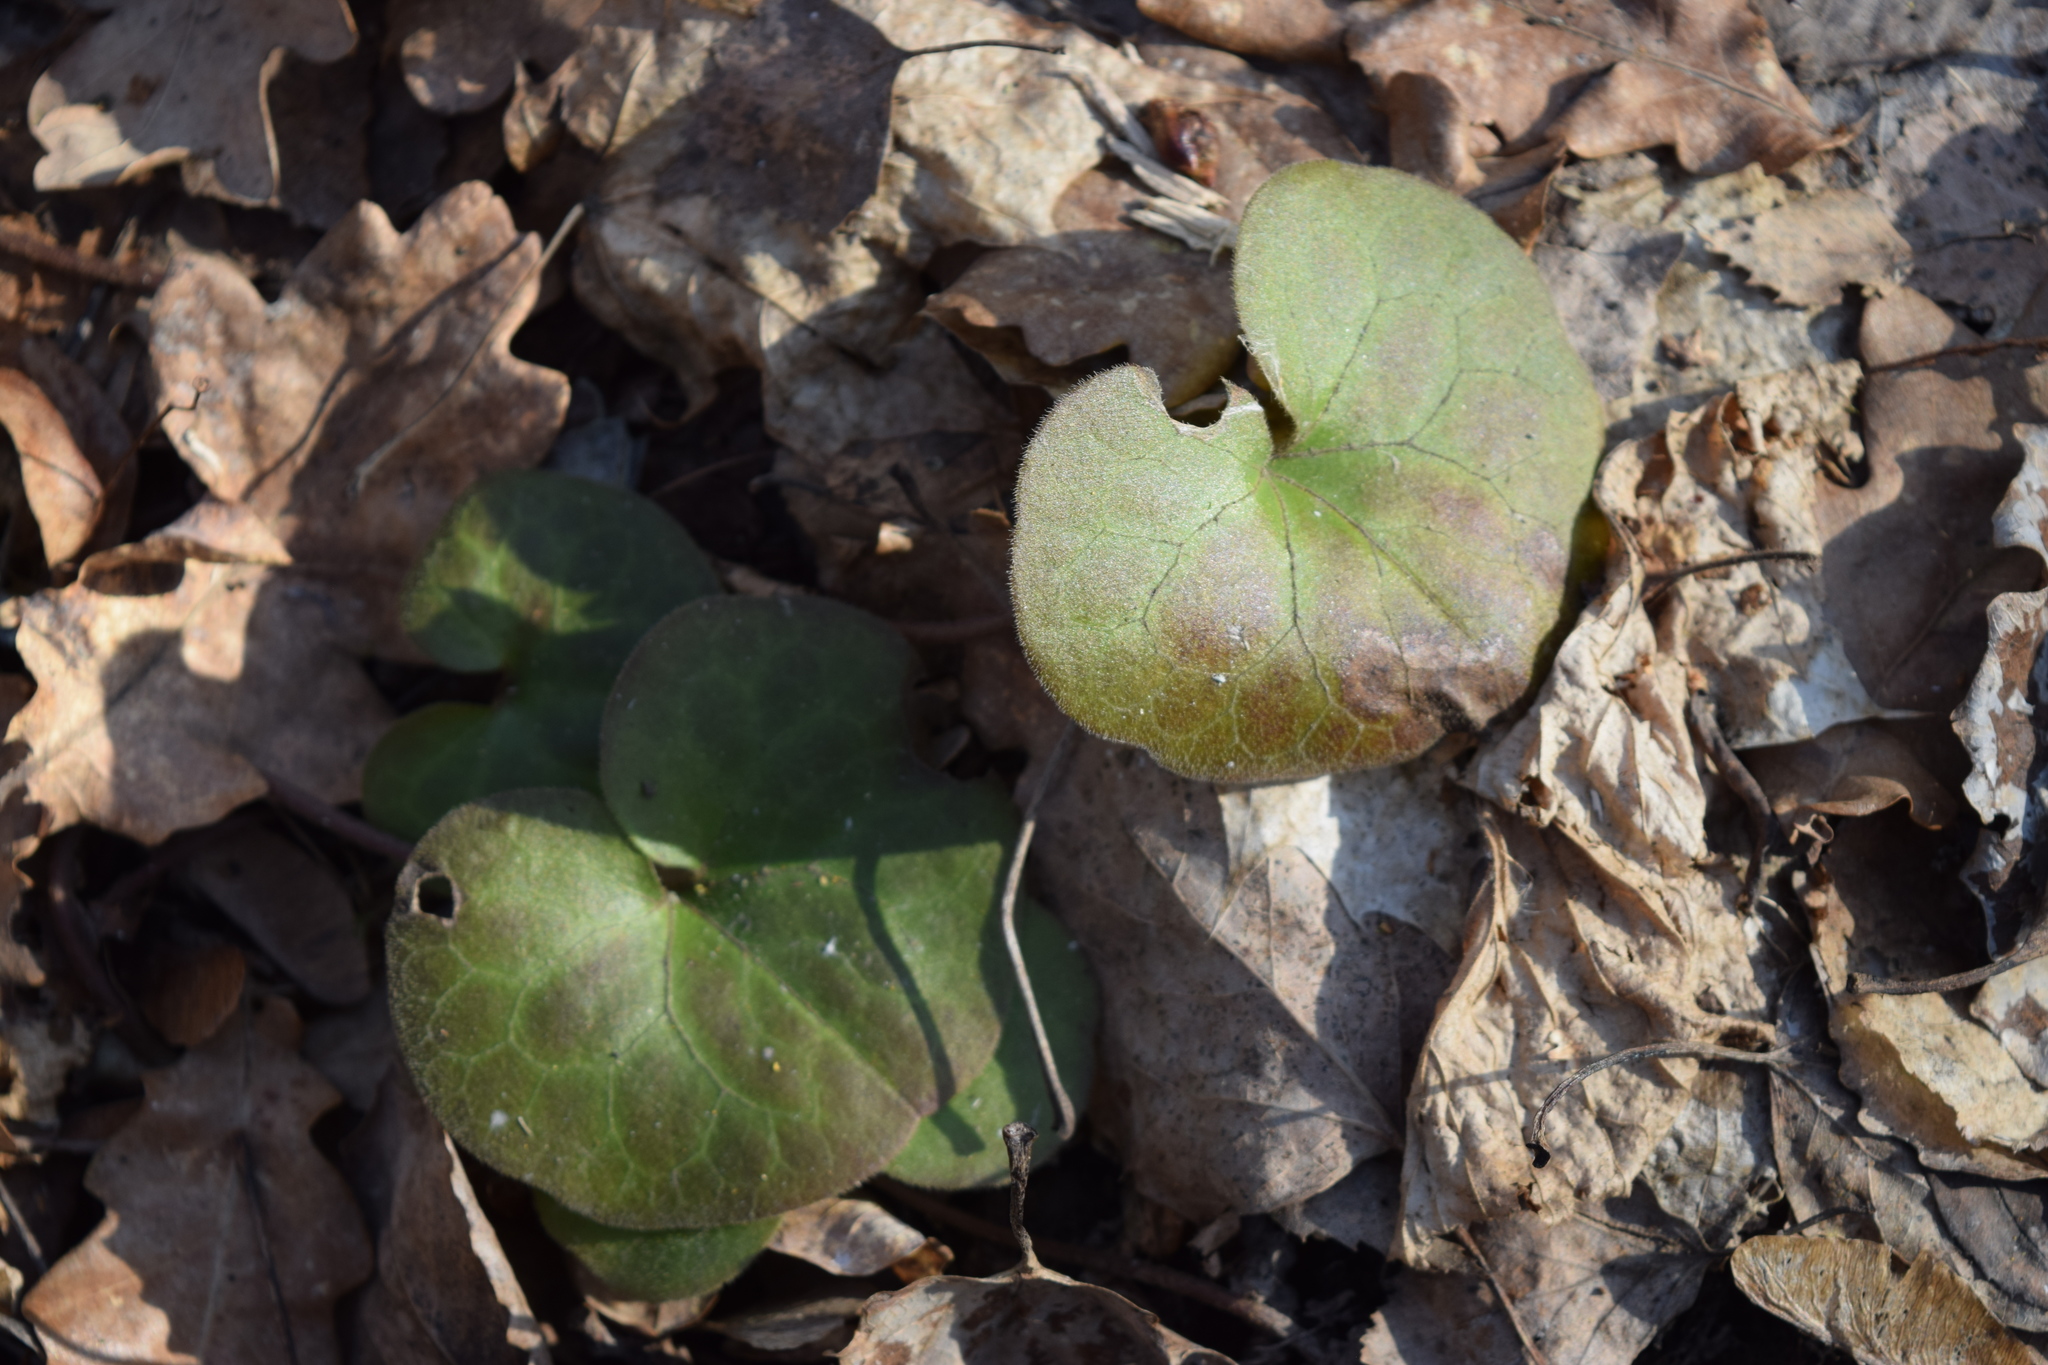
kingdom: Plantae
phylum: Tracheophyta
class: Magnoliopsida
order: Piperales
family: Aristolochiaceae
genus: Asarum
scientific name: Asarum europaeum
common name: Asarabacca
